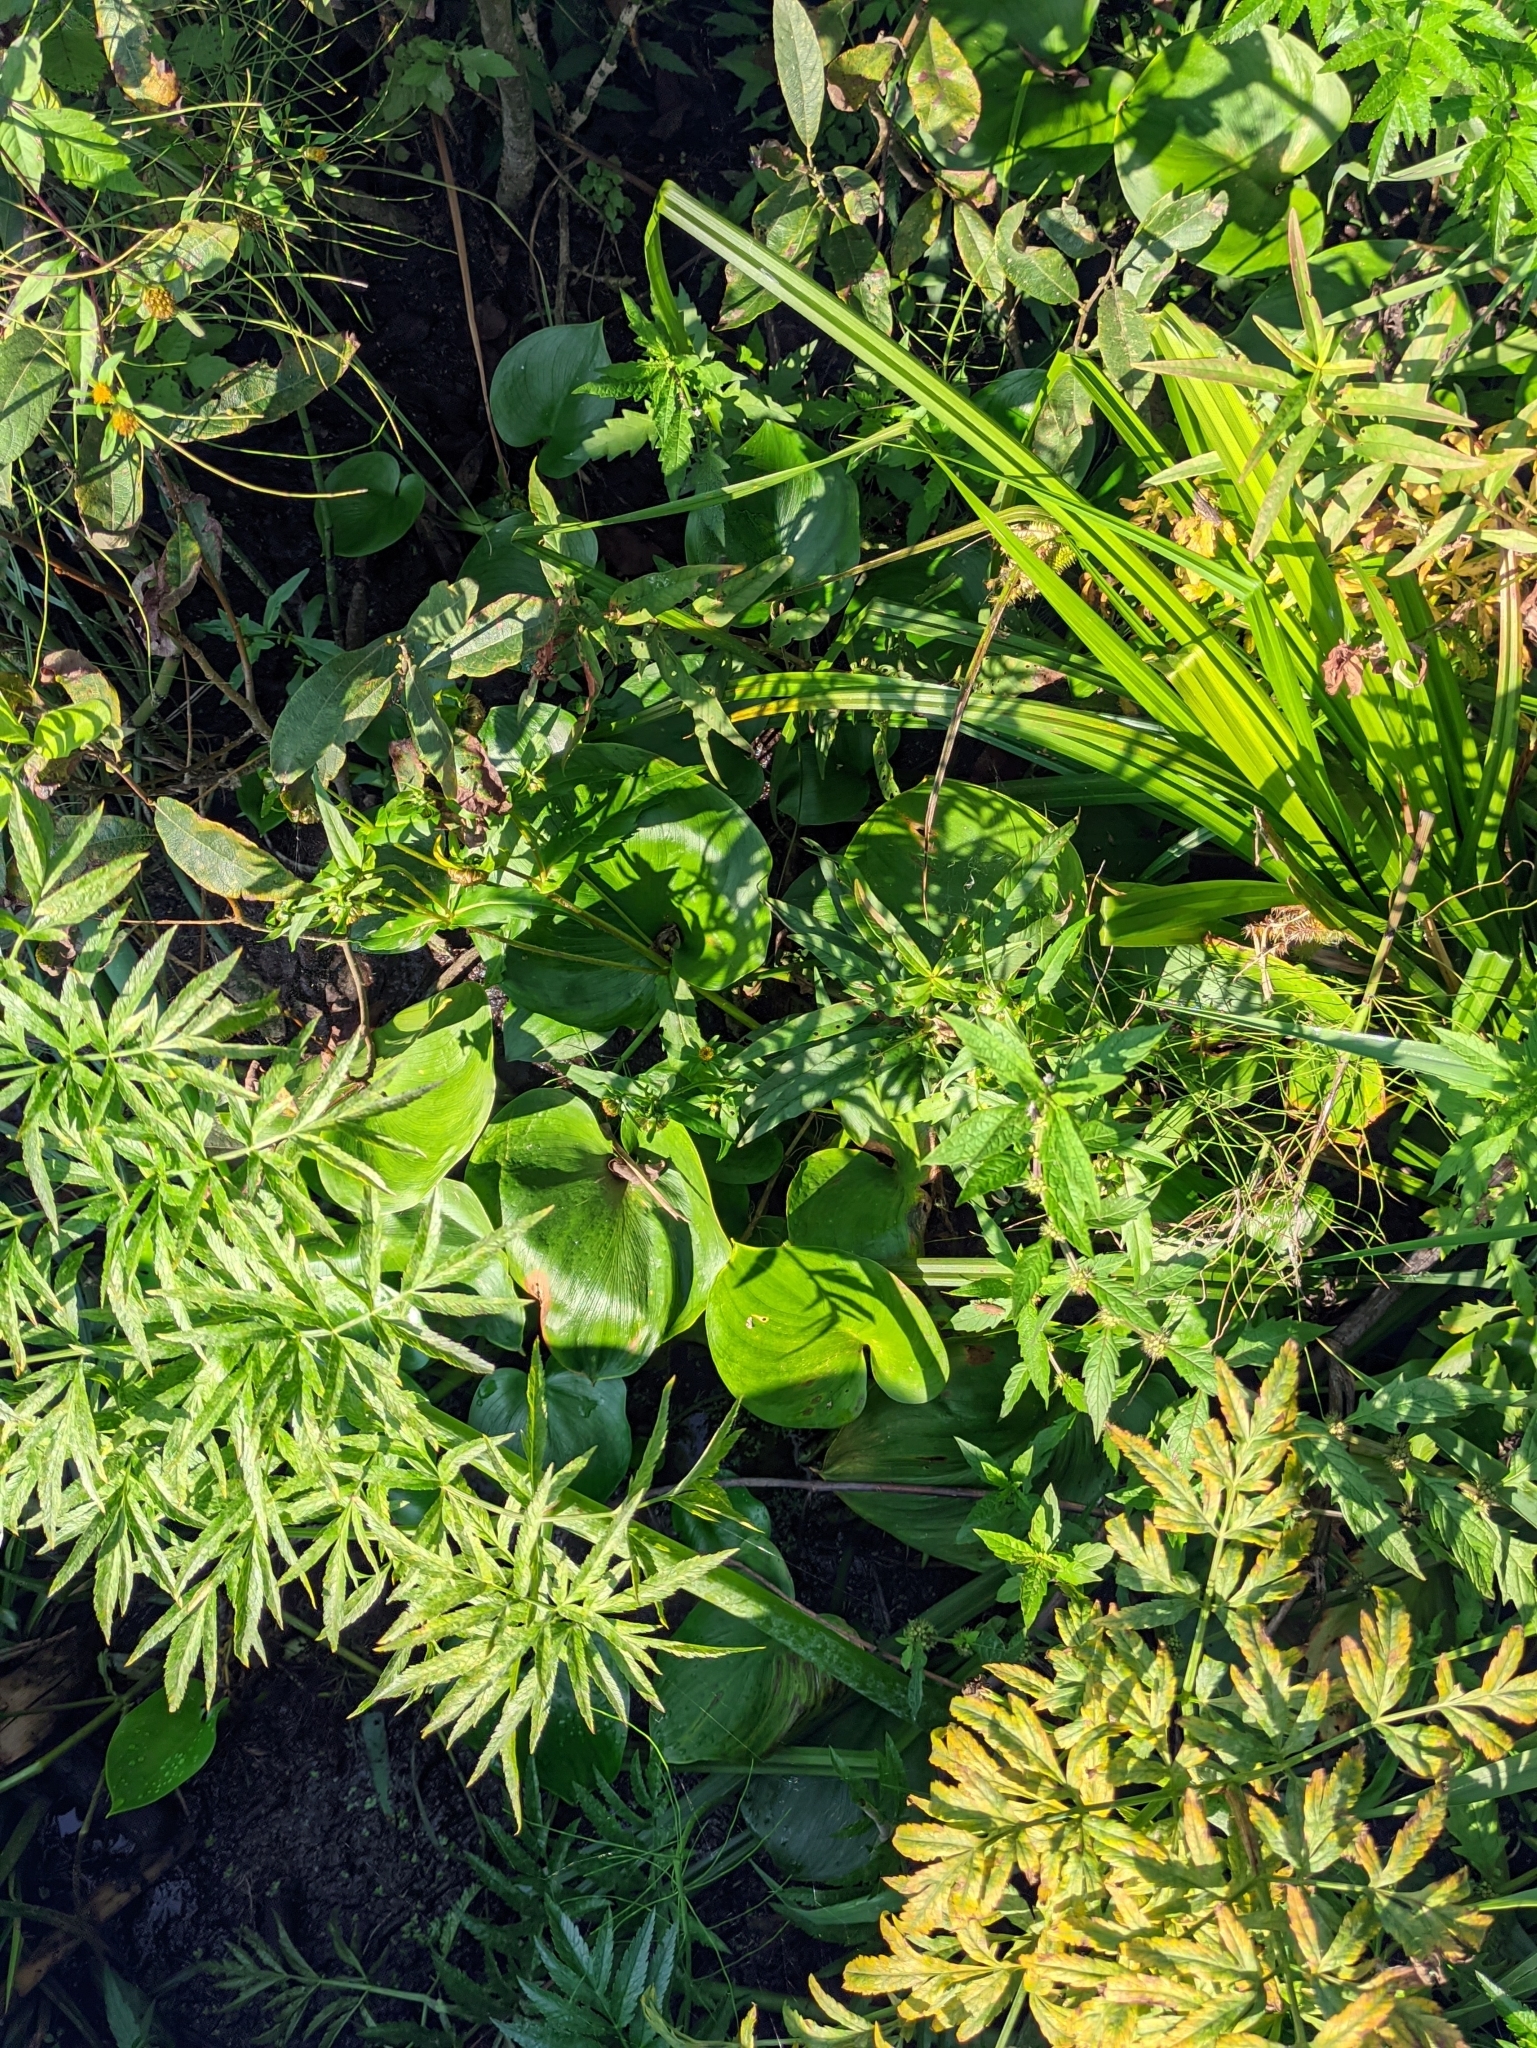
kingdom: Plantae
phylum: Tracheophyta
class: Liliopsida
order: Alismatales
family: Araceae
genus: Calla
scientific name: Calla palustris
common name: Bog arum
